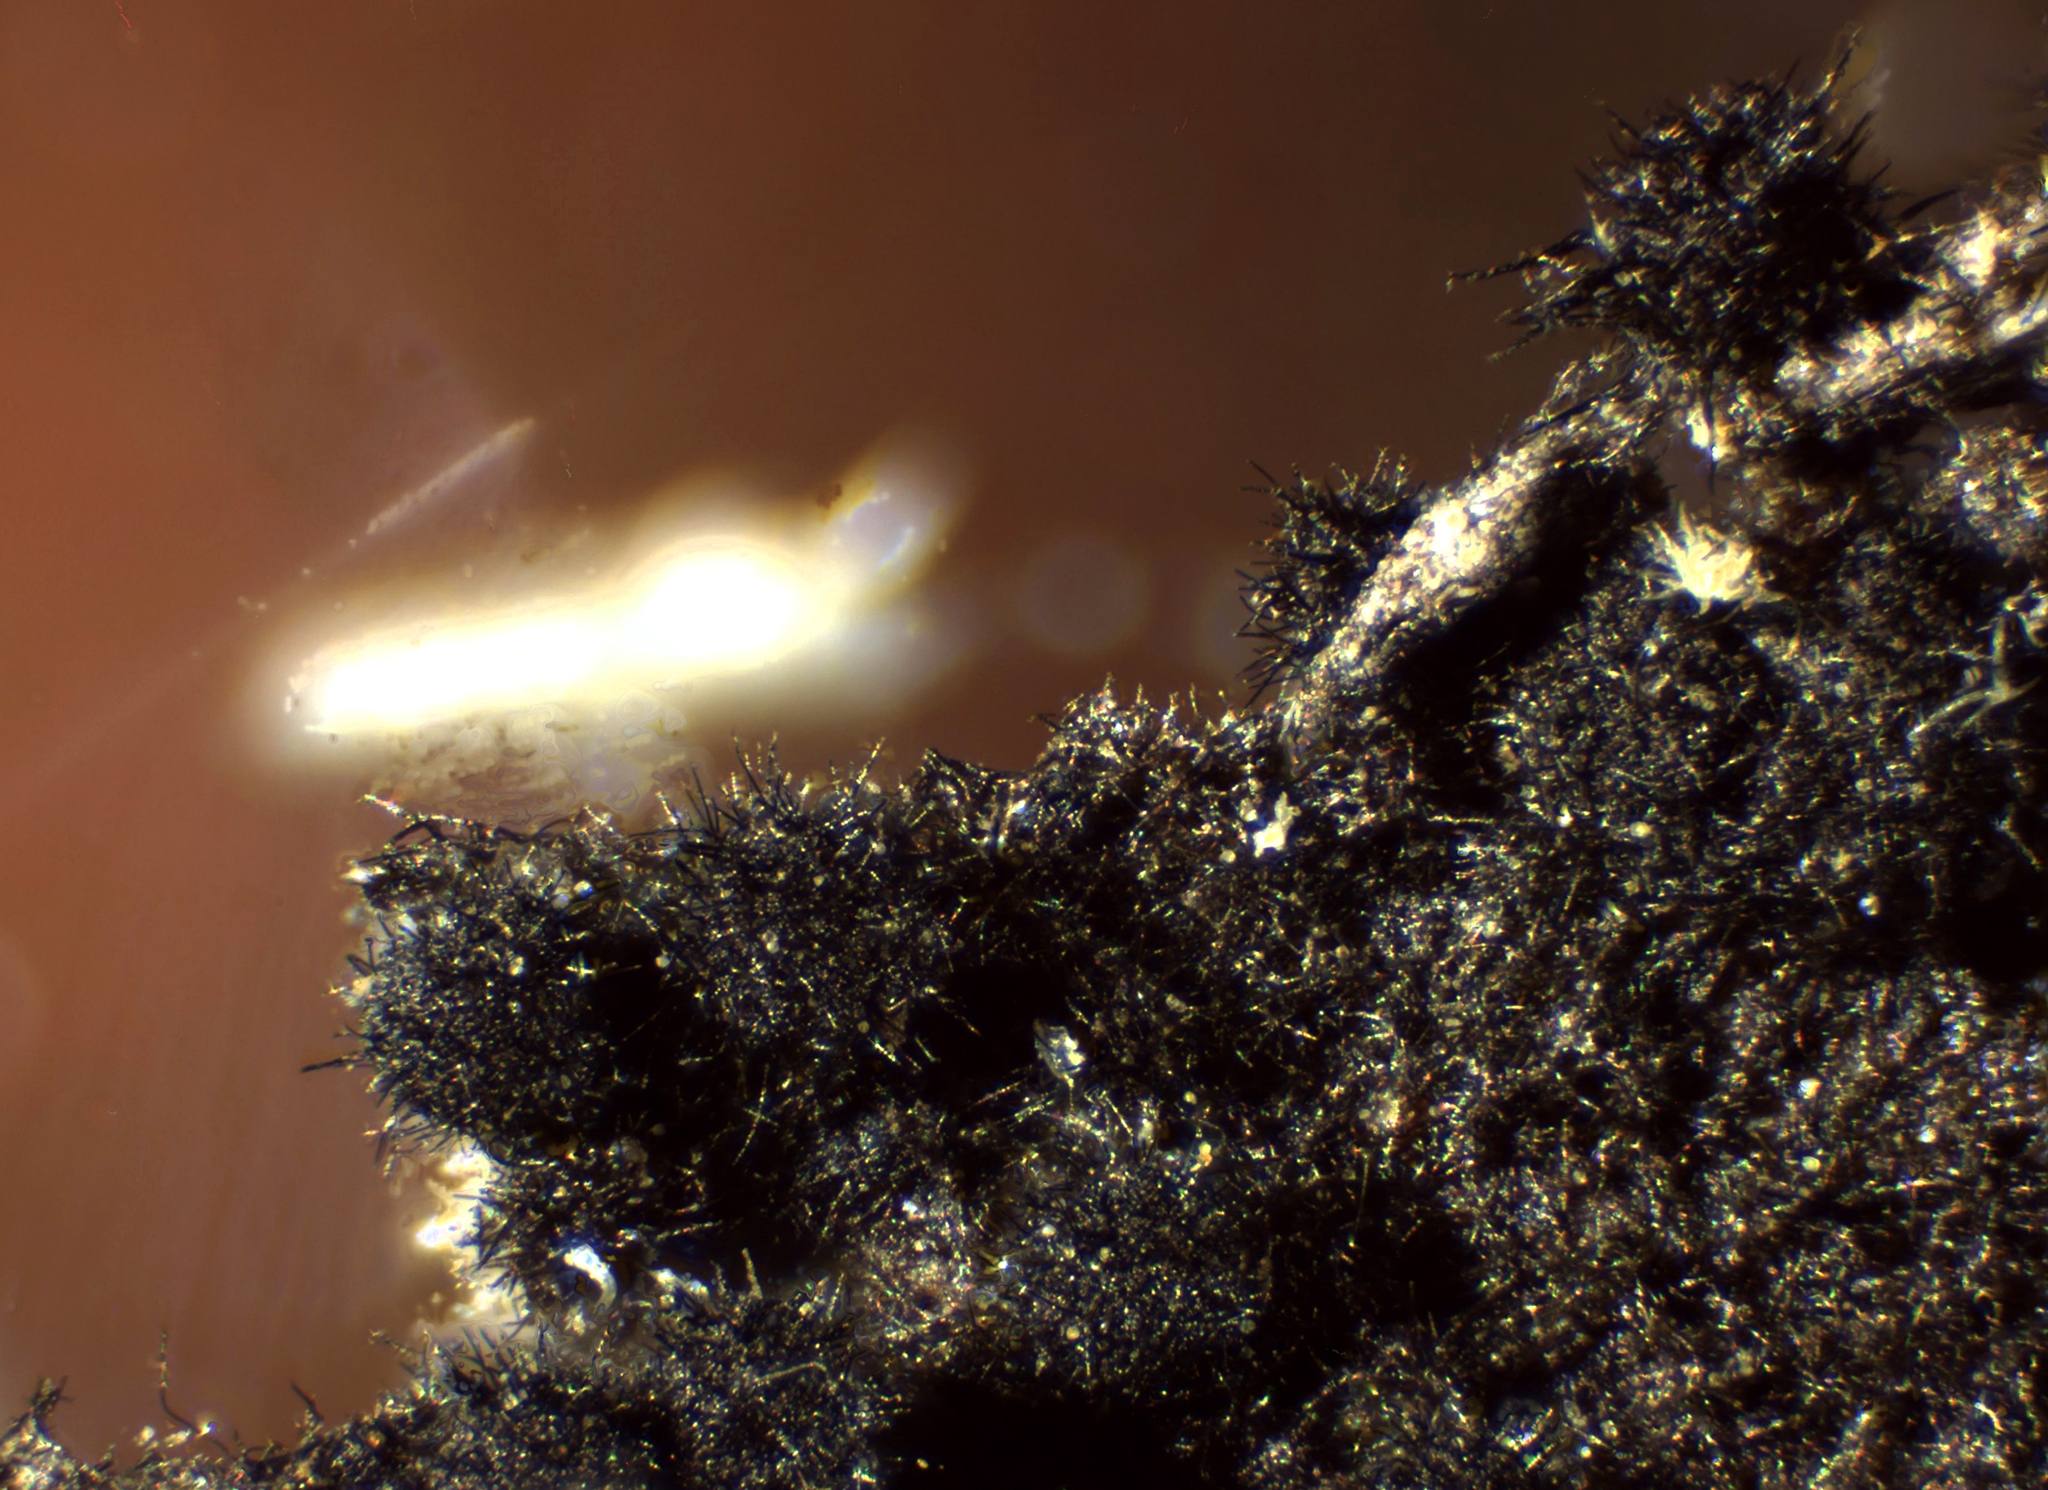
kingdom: Fungi
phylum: Ascomycota
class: Sordariomycetes
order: Sordariales
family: Lasiosphaeridaceae
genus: Lasiosphaeris
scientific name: Lasiosphaeris hirsuta
